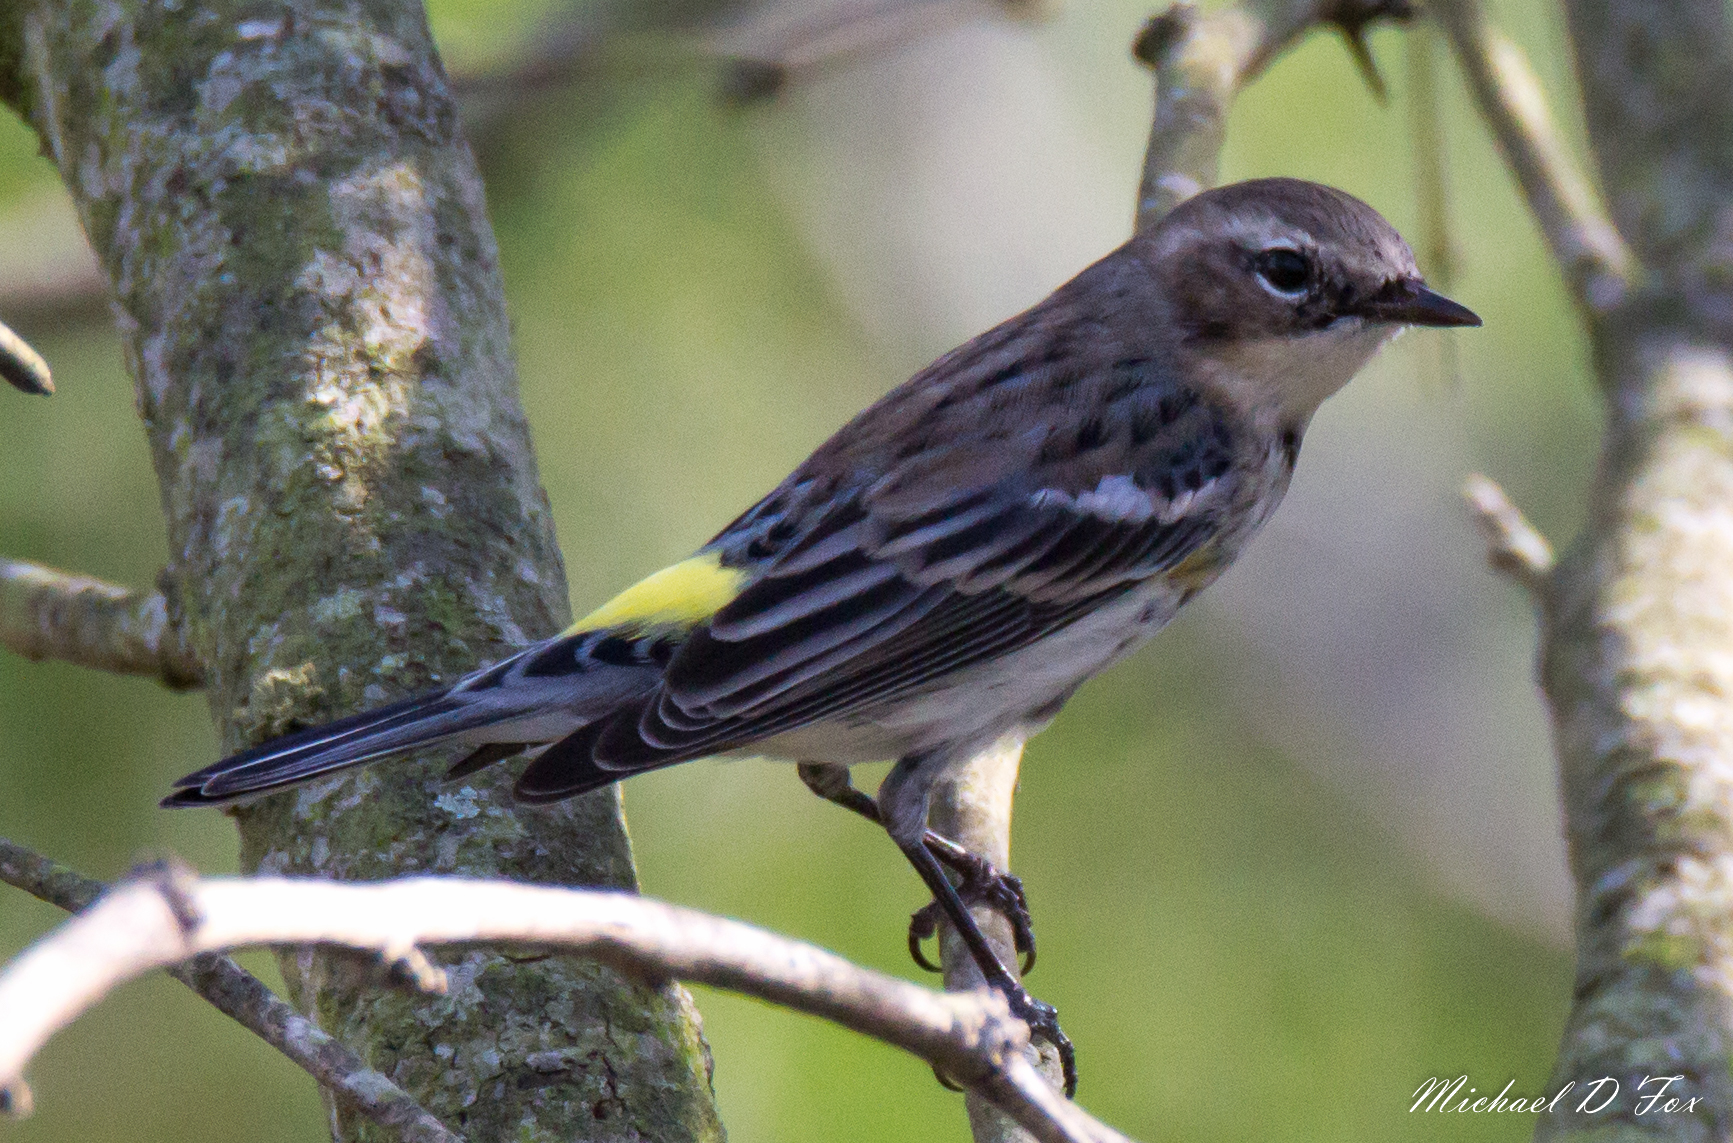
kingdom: Animalia
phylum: Chordata
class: Aves
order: Passeriformes
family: Parulidae
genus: Setophaga
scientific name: Setophaga coronata
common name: Myrtle warbler
